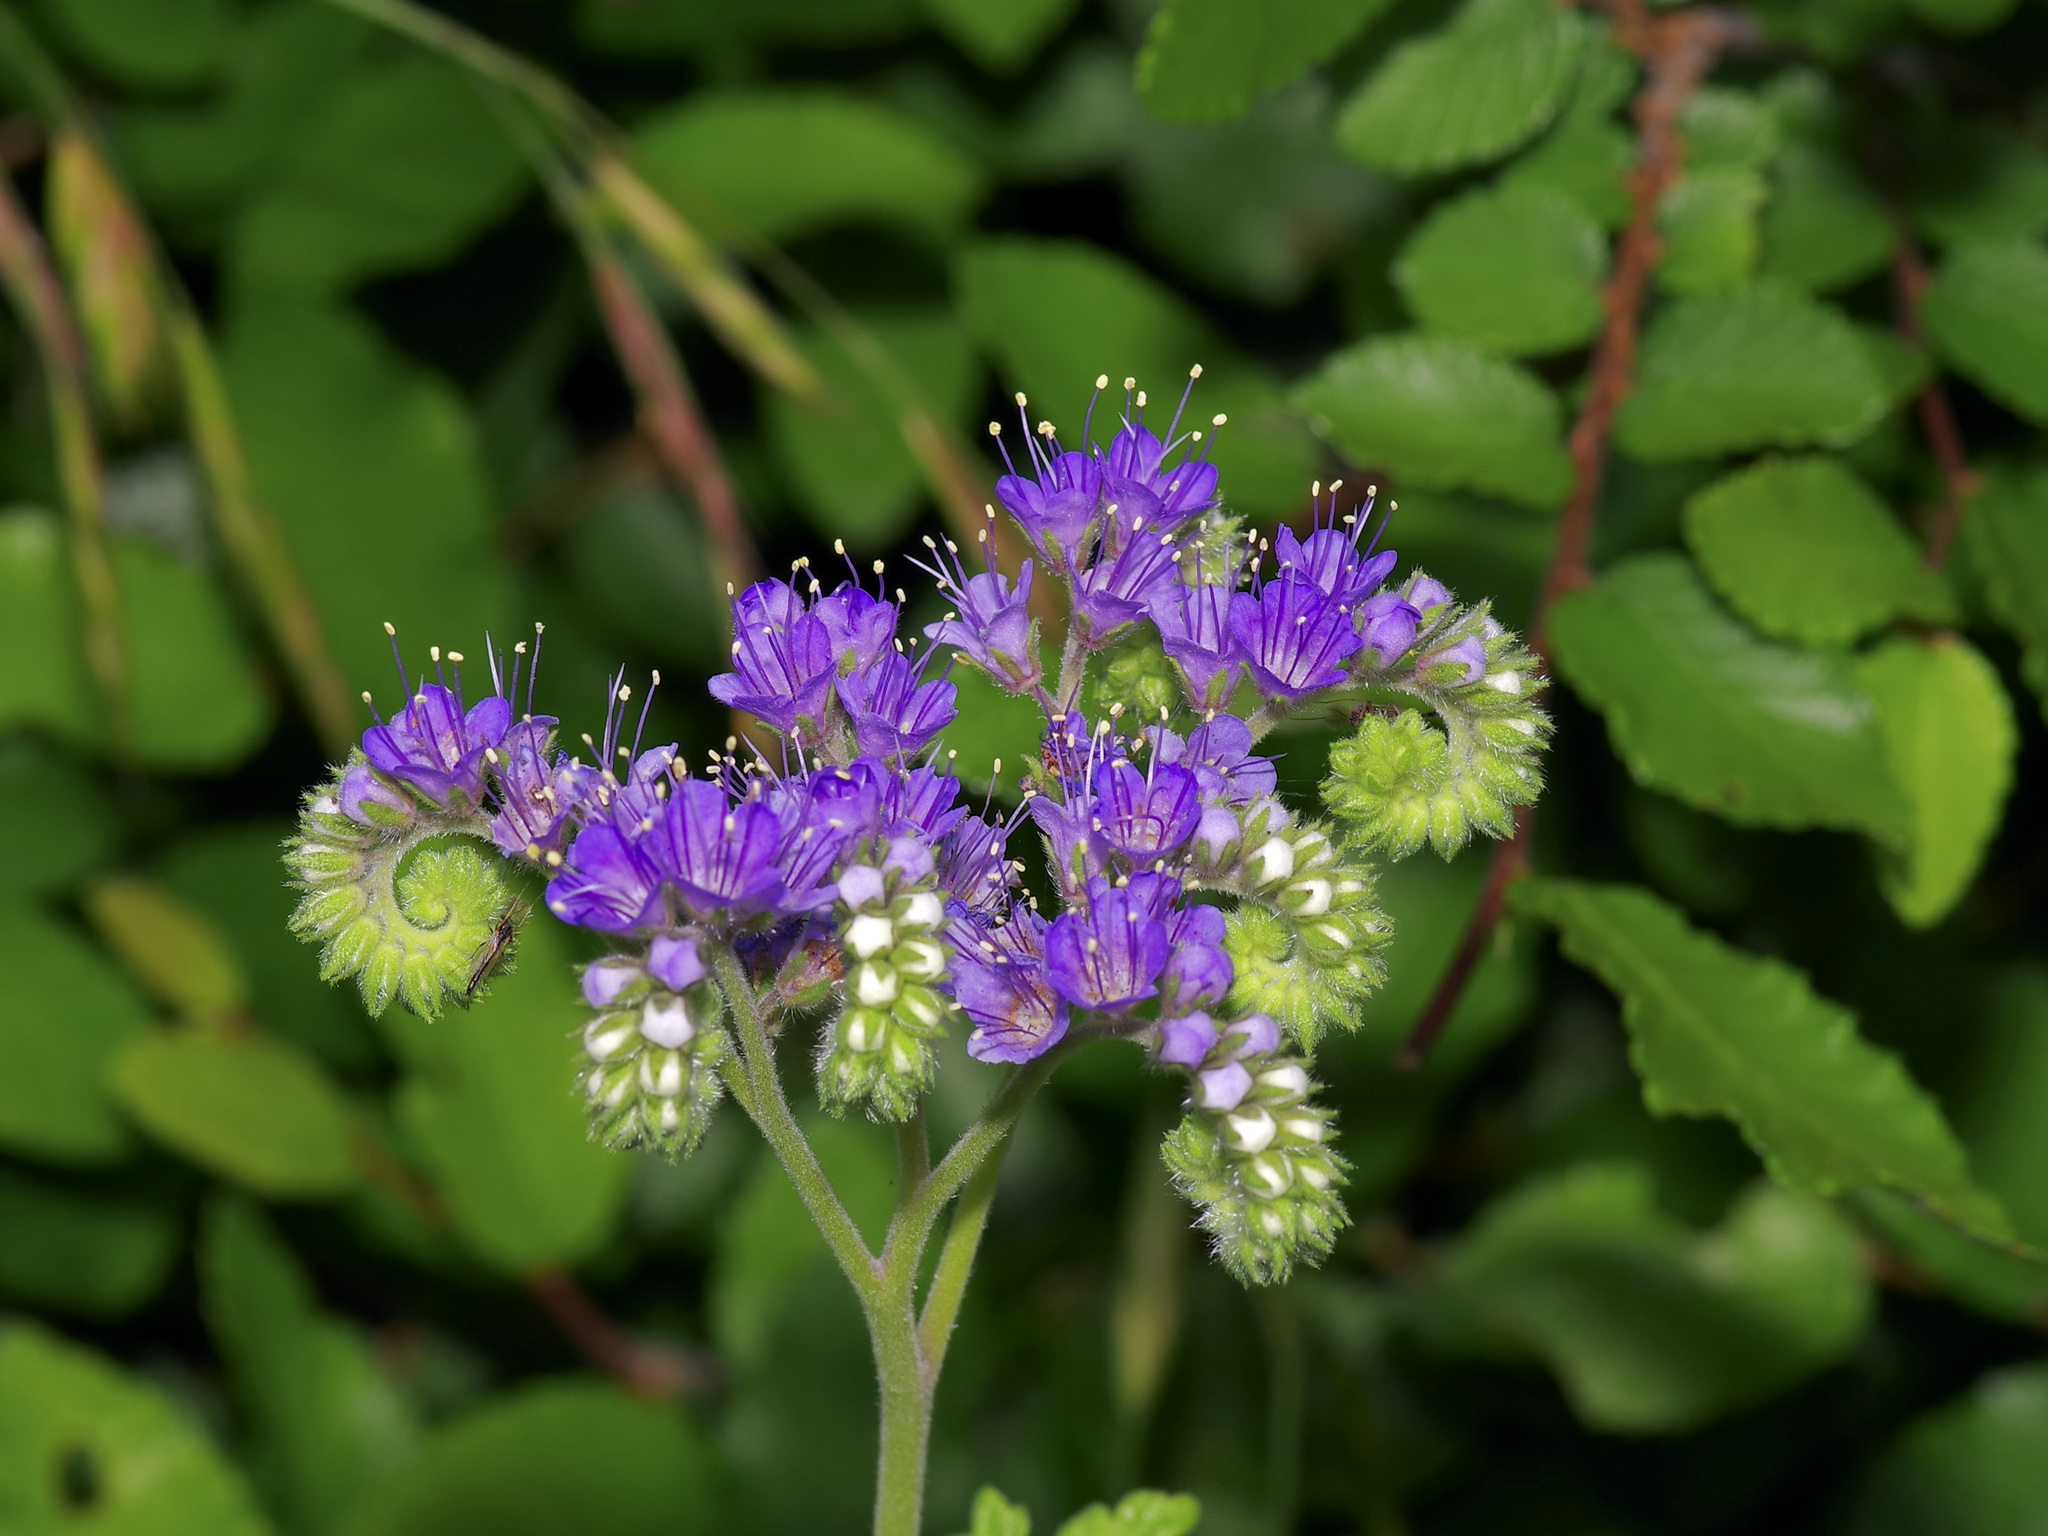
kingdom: Plantae
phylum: Tracheophyta
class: Magnoliopsida
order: Boraginales
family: Hydrophyllaceae
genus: Phacelia
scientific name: Phacelia congesta
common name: Blue curls
